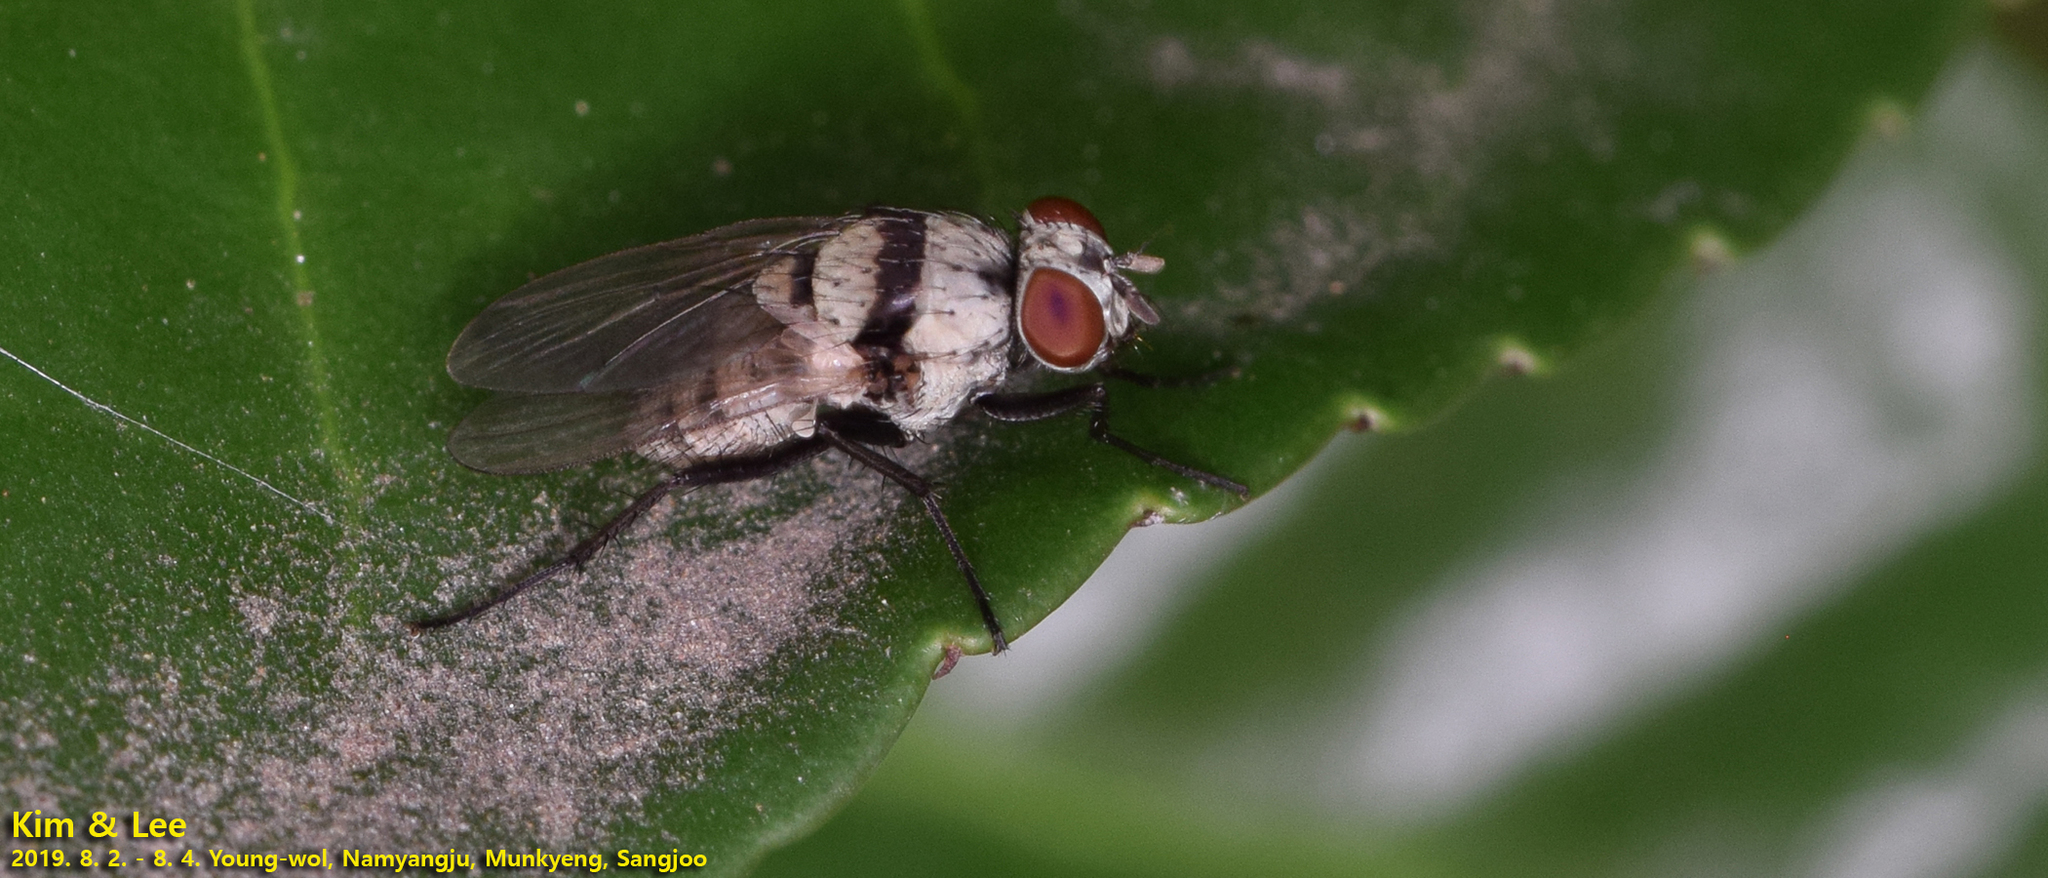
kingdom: Animalia
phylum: Arthropoda
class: Insecta
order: Diptera
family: Anthomyiidae
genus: Anthomyia
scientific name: Anthomyia illocata
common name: Fly
